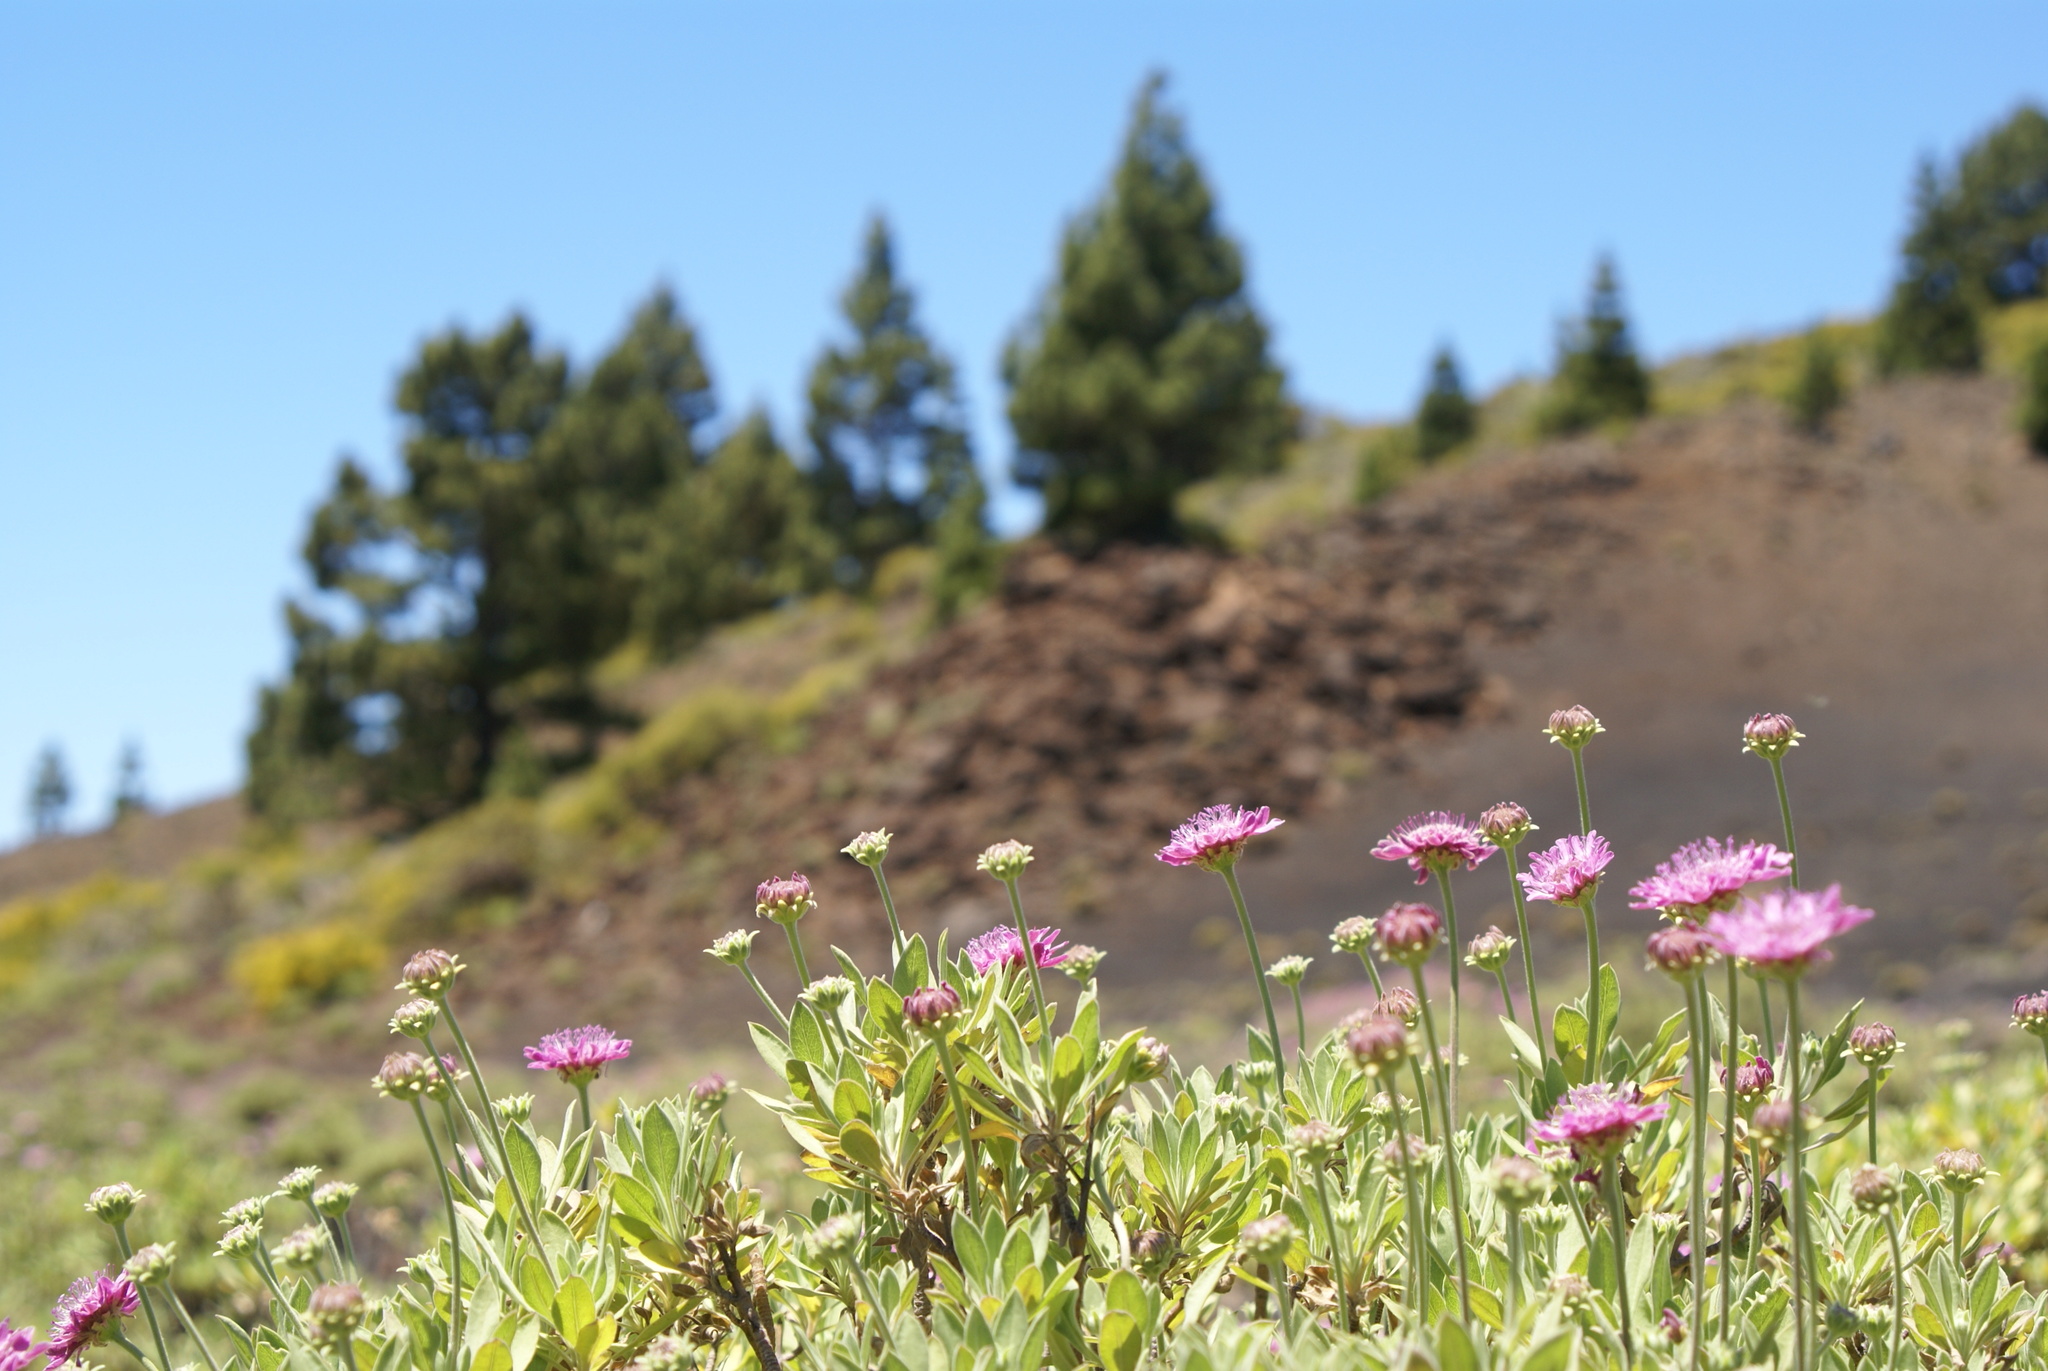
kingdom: Plantae
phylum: Tracheophyta
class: Magnoliopsida
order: Dipsacales
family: Caprifoliaceae
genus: Pterocephalus
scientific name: Pterocephalus porphyranthus
